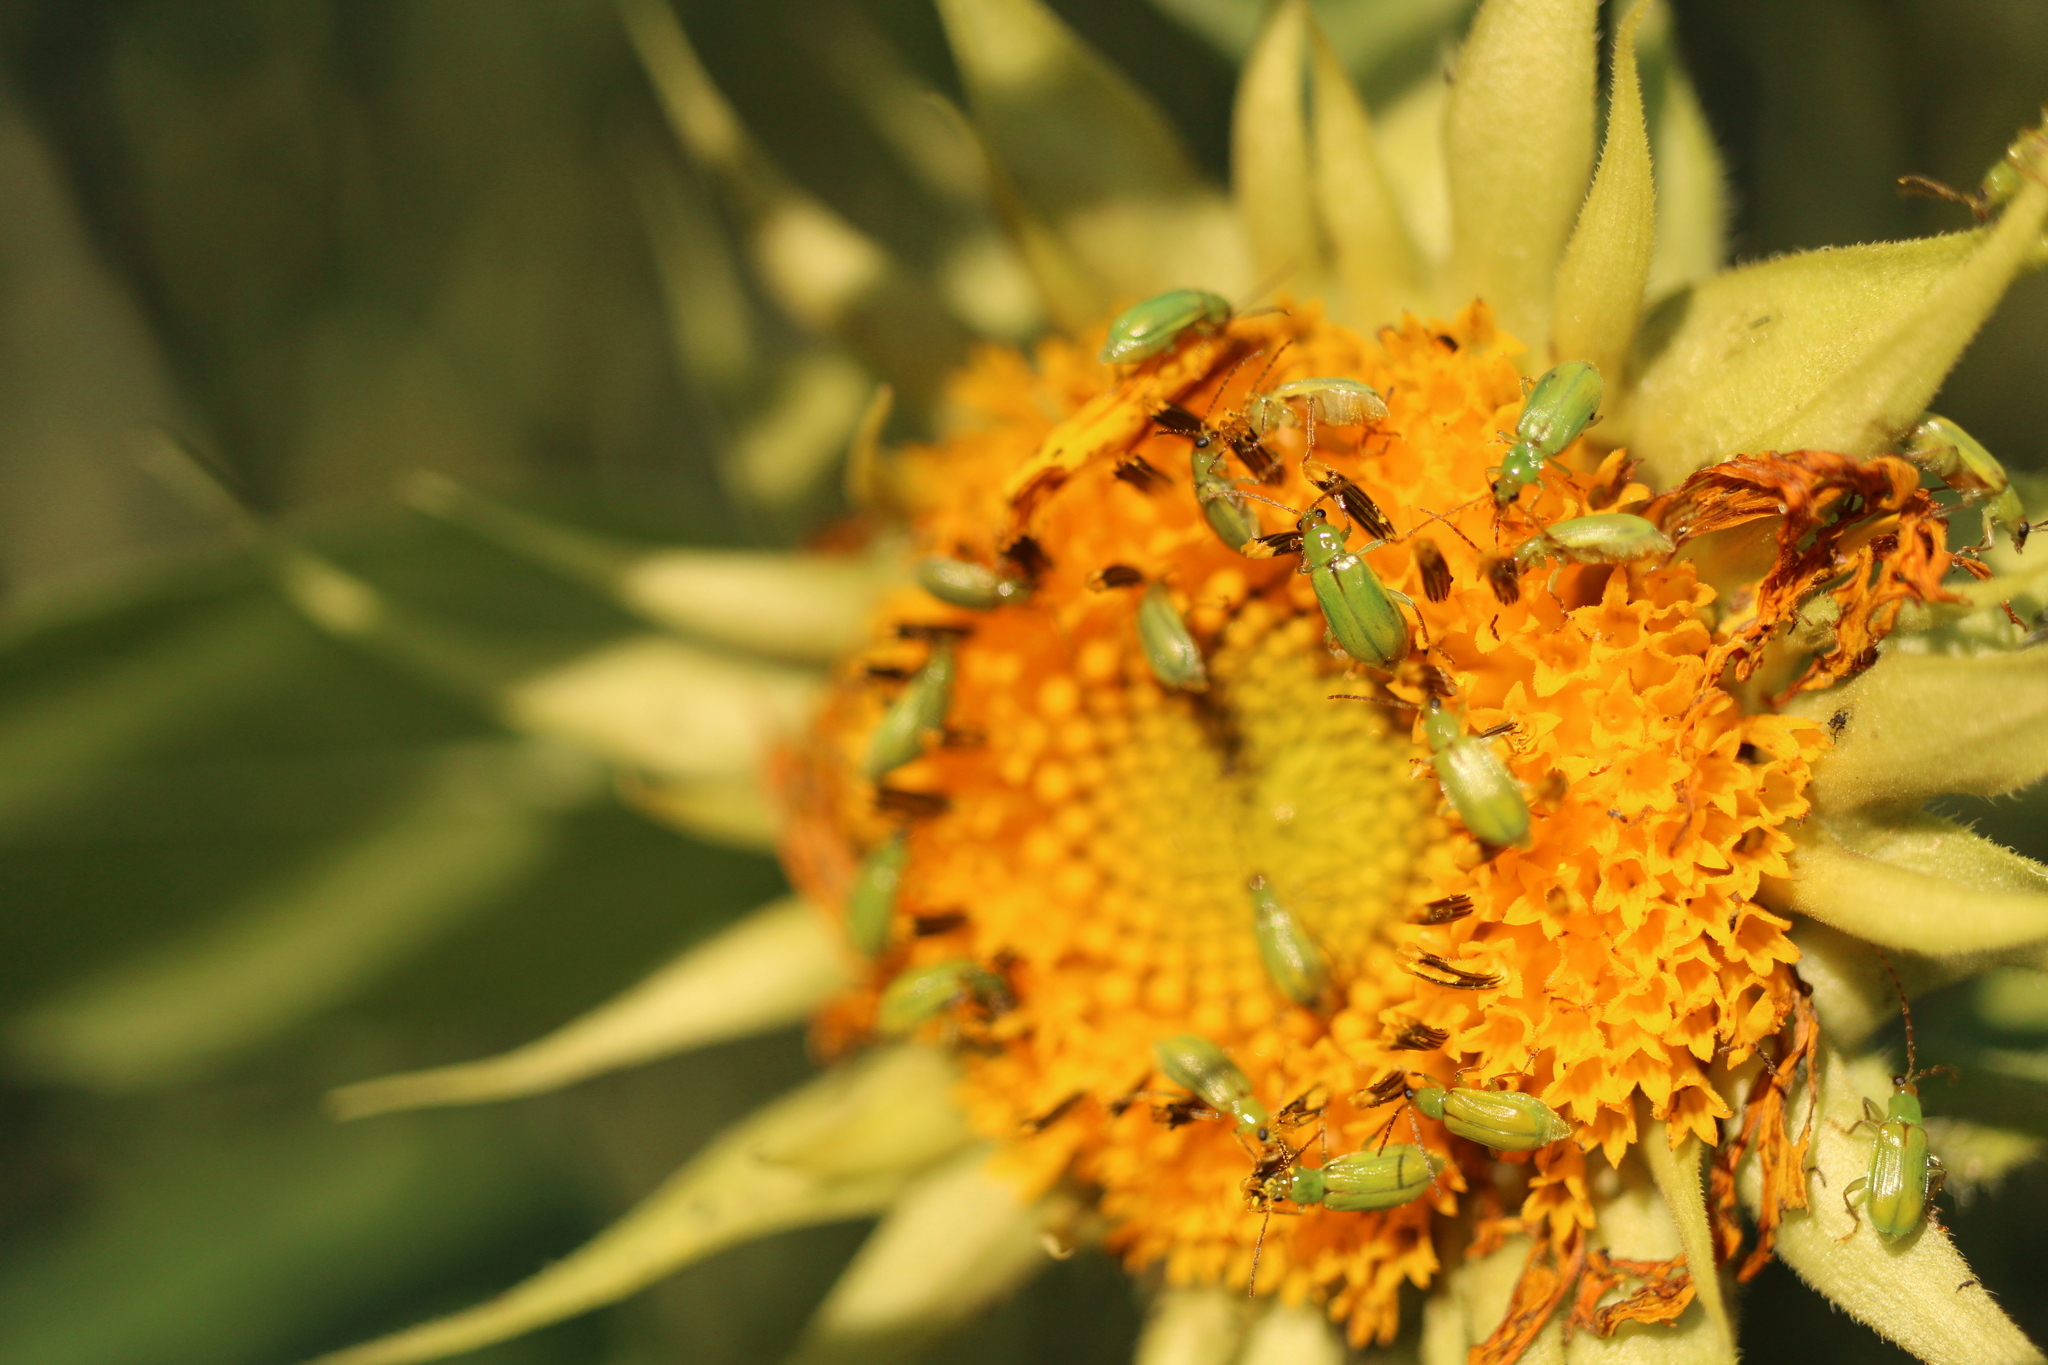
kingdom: Animalia
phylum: Arthropoda
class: Insecta
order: Coleoptera
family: Chrysomelidae
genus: Diabrotica
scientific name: Diabrotica barberi
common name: Northern corn rootworm
